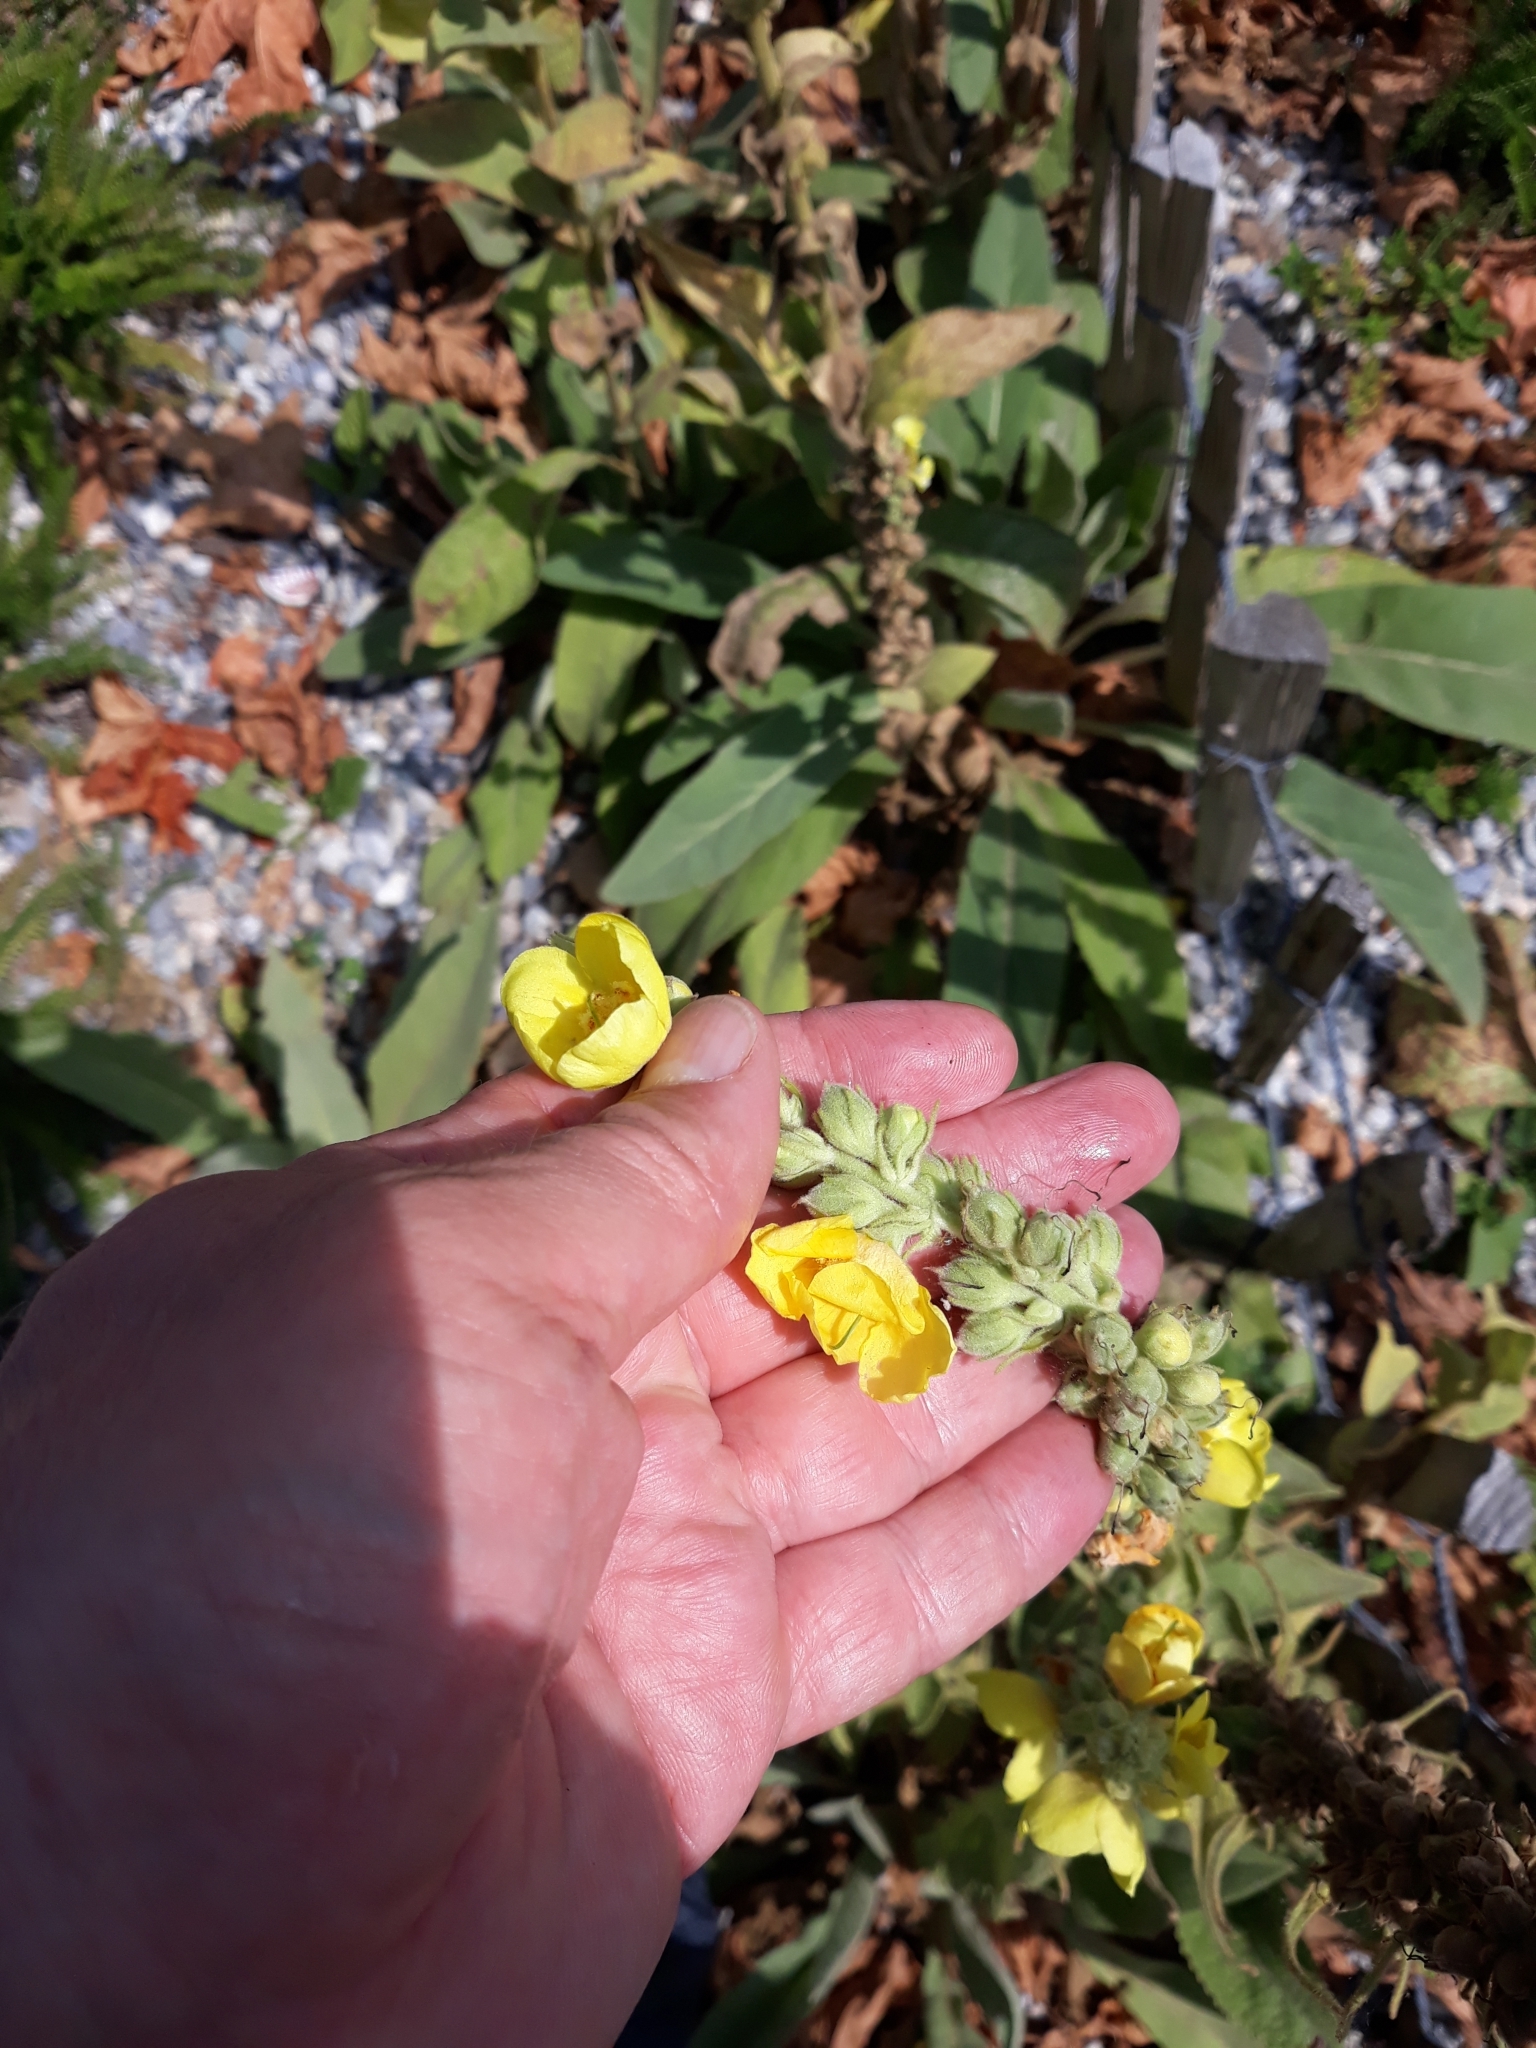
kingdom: Plantae
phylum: Tracheophyta
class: Magnoliopsida
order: Lamiales
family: Scrophulariaceae
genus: Verbascum
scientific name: Verbascum phlomoides
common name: Orange mullein
